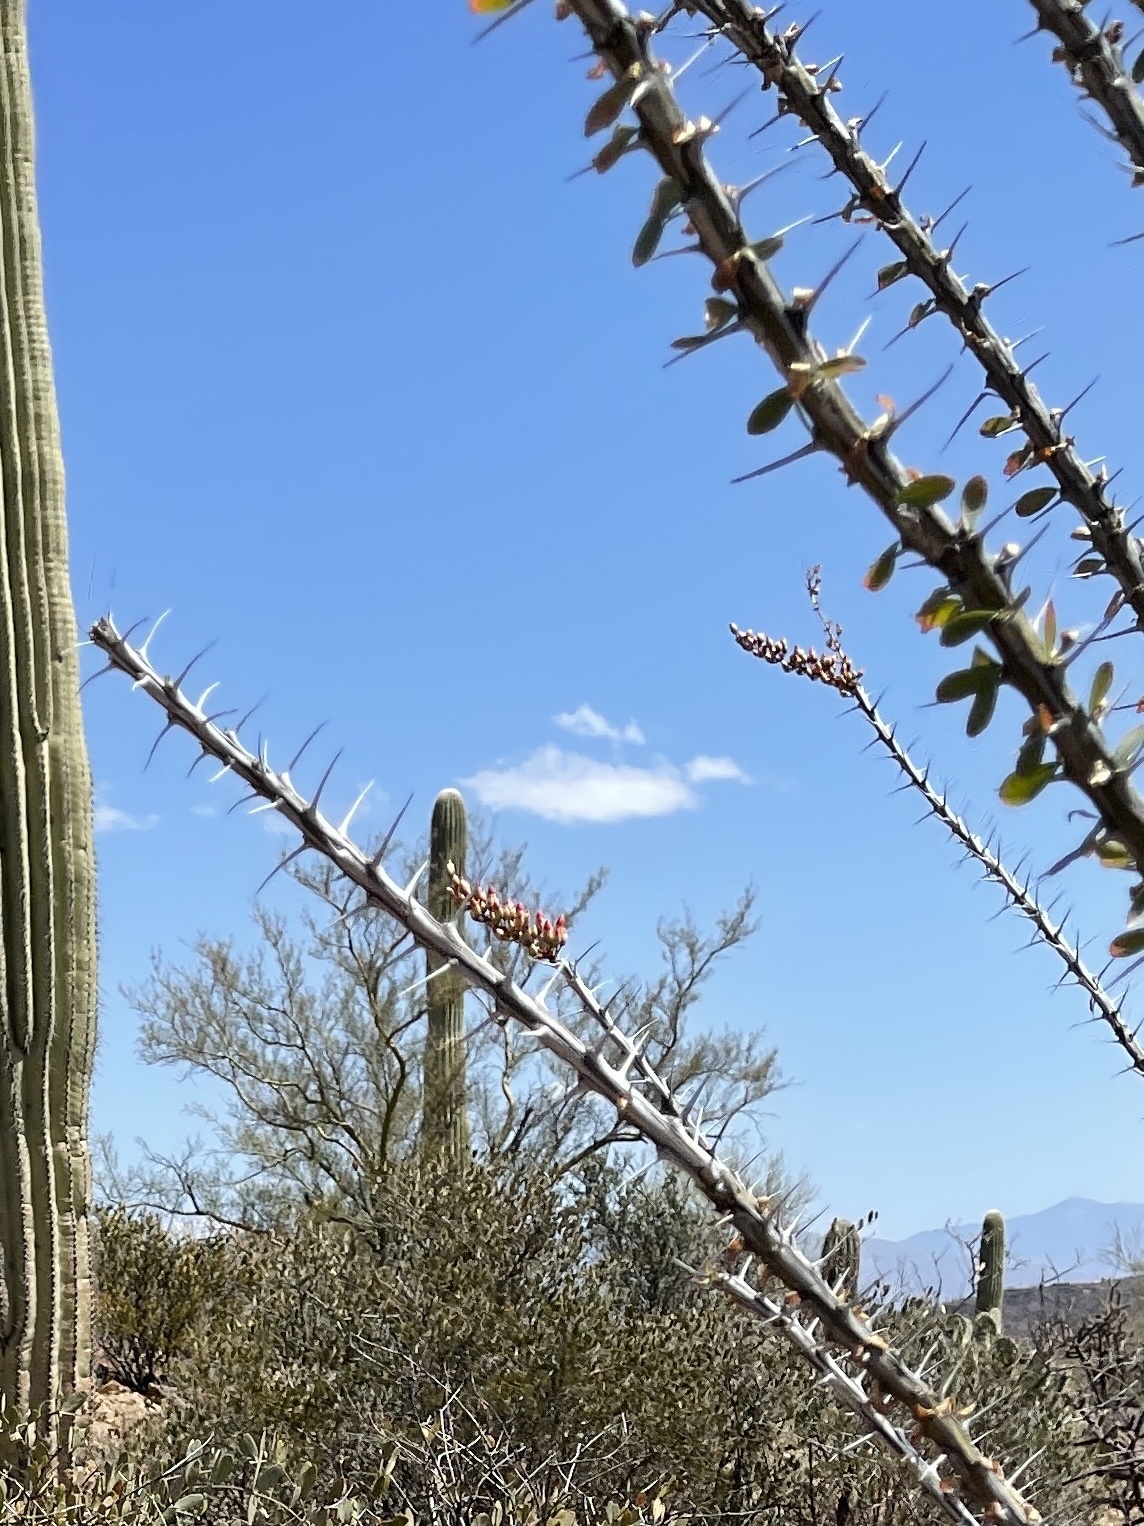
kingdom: Plantae
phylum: Tracheophyta
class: Magnoliopsida
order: Ericales
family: Fouquieriaceae
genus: Fouquieria
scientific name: Fouquieria splendens
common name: Vine-cactus
